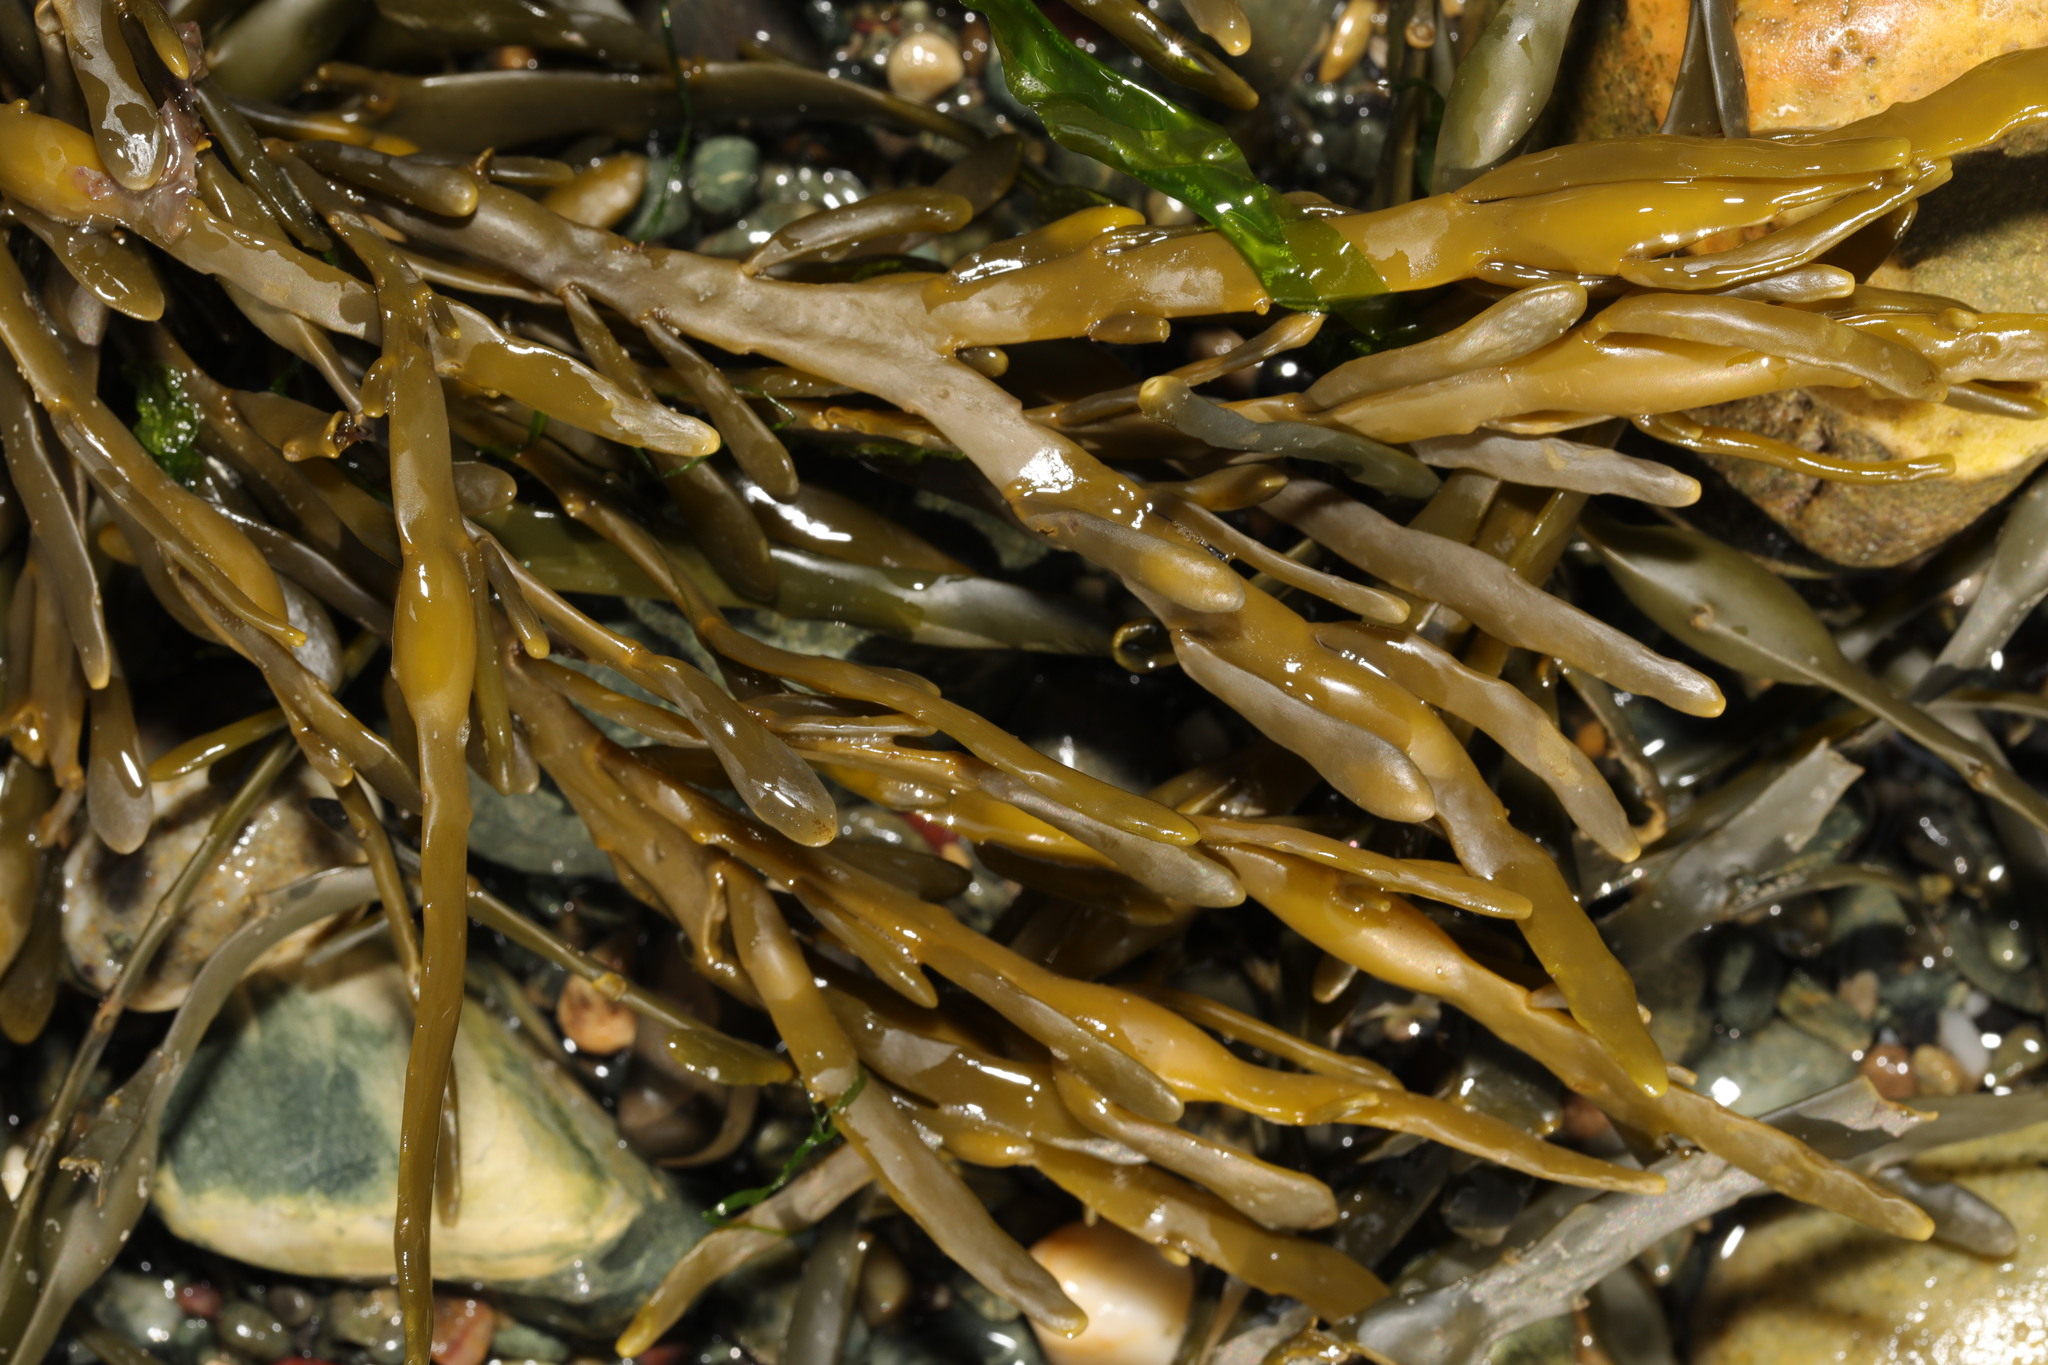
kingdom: Chromista
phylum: Ochrophyta
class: Phaeophyceae
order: Fucales
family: Fucaceae
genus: Ascophyllum
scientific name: Ascophyllum nodosum
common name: Knotted wrack
